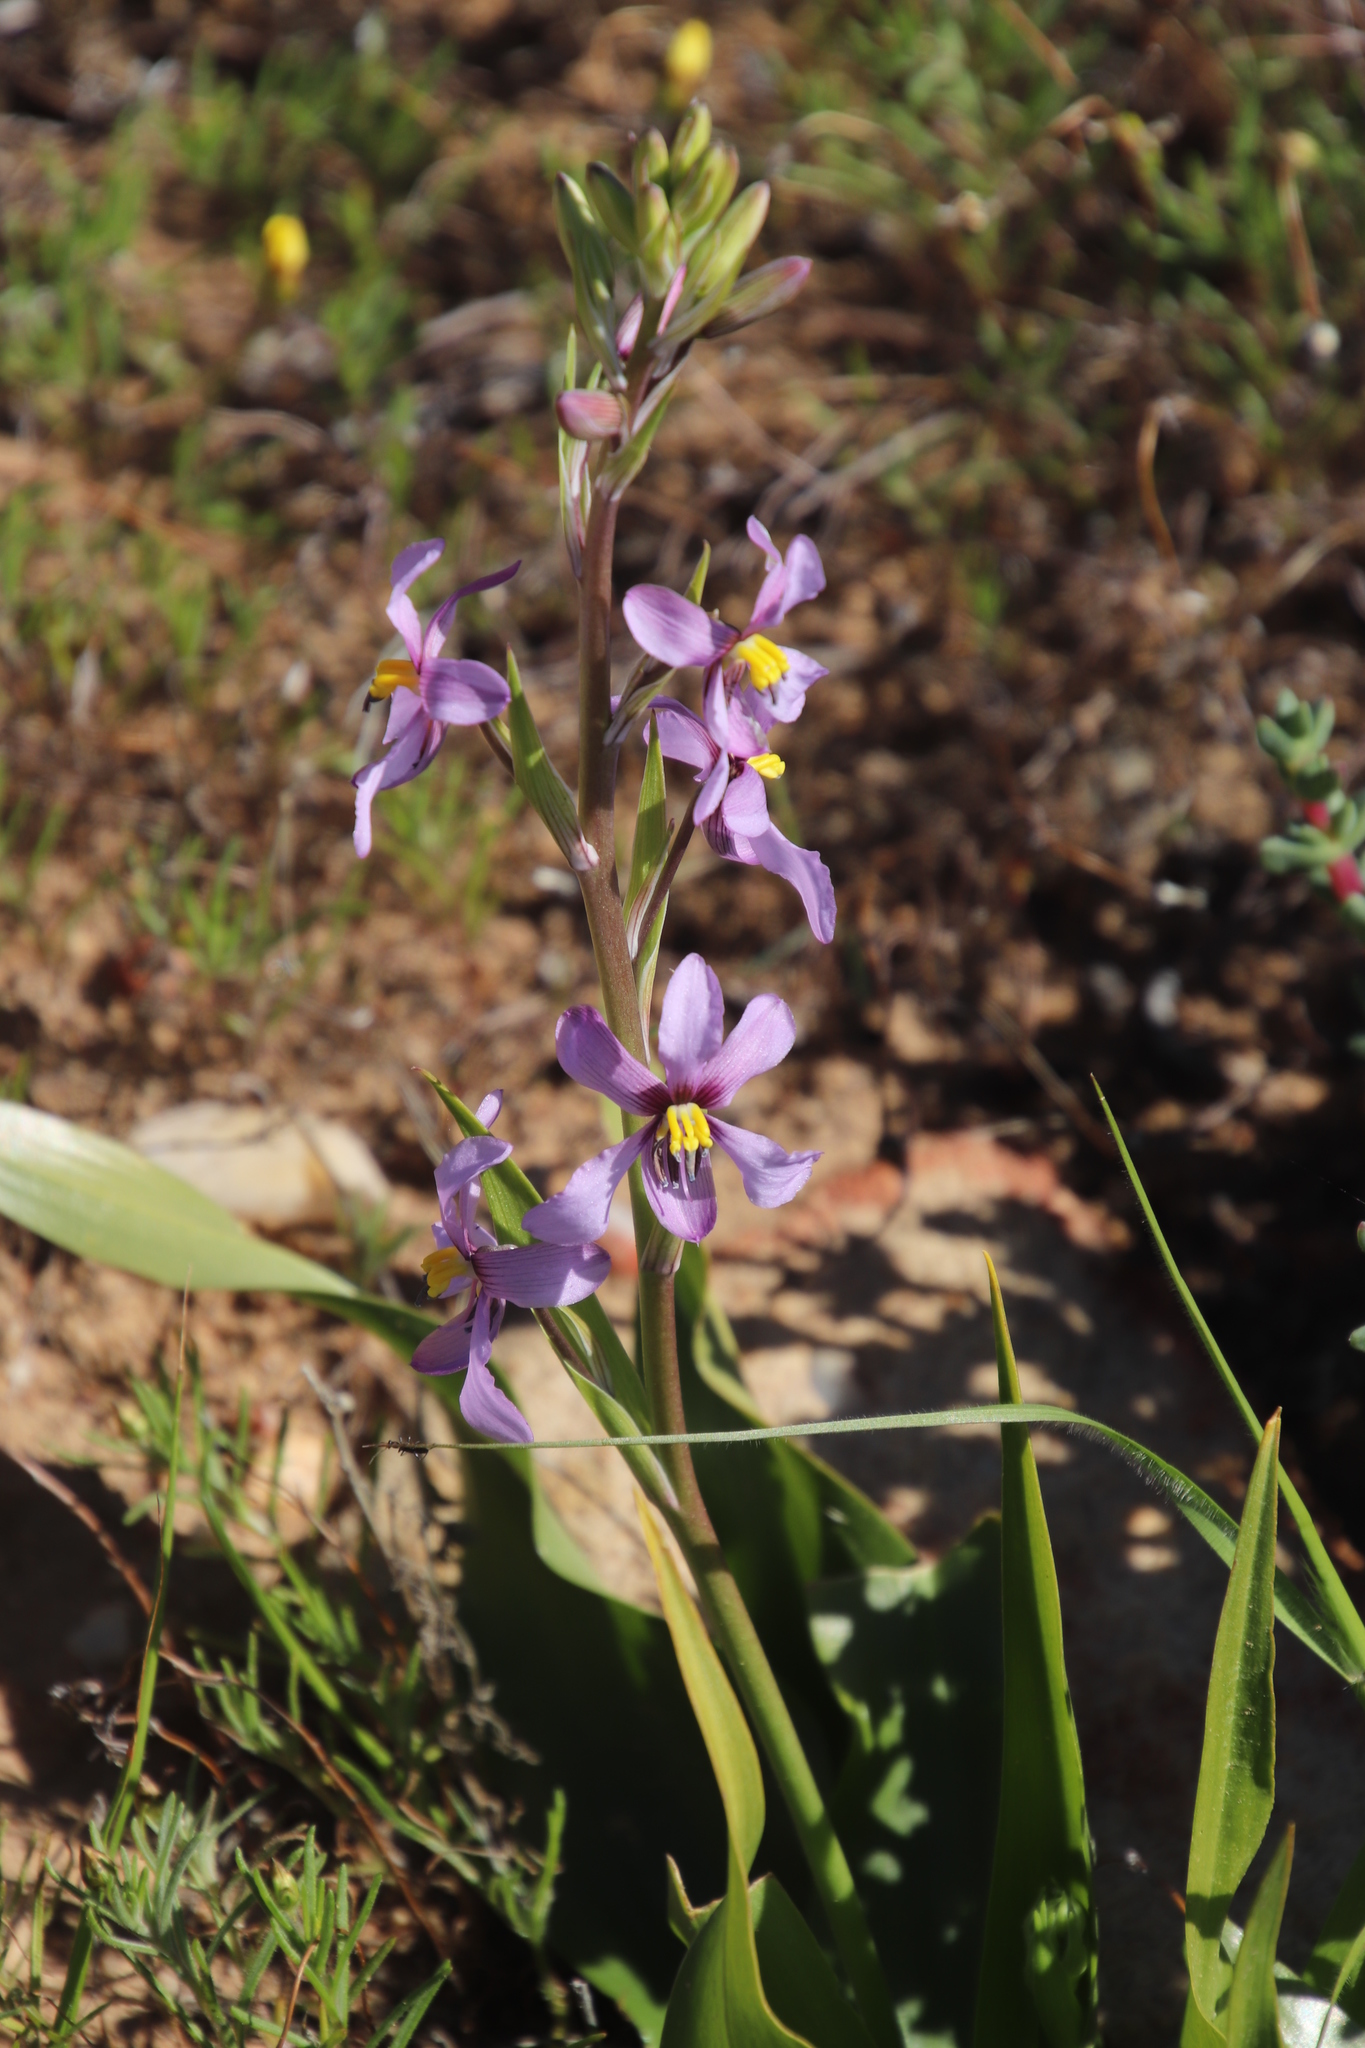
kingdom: Plantae
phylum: Tracheophyta
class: Liliopsida
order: Asparagales
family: Tecophilaeaceae
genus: Cyanella
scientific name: Cyanella hyacinthoides
